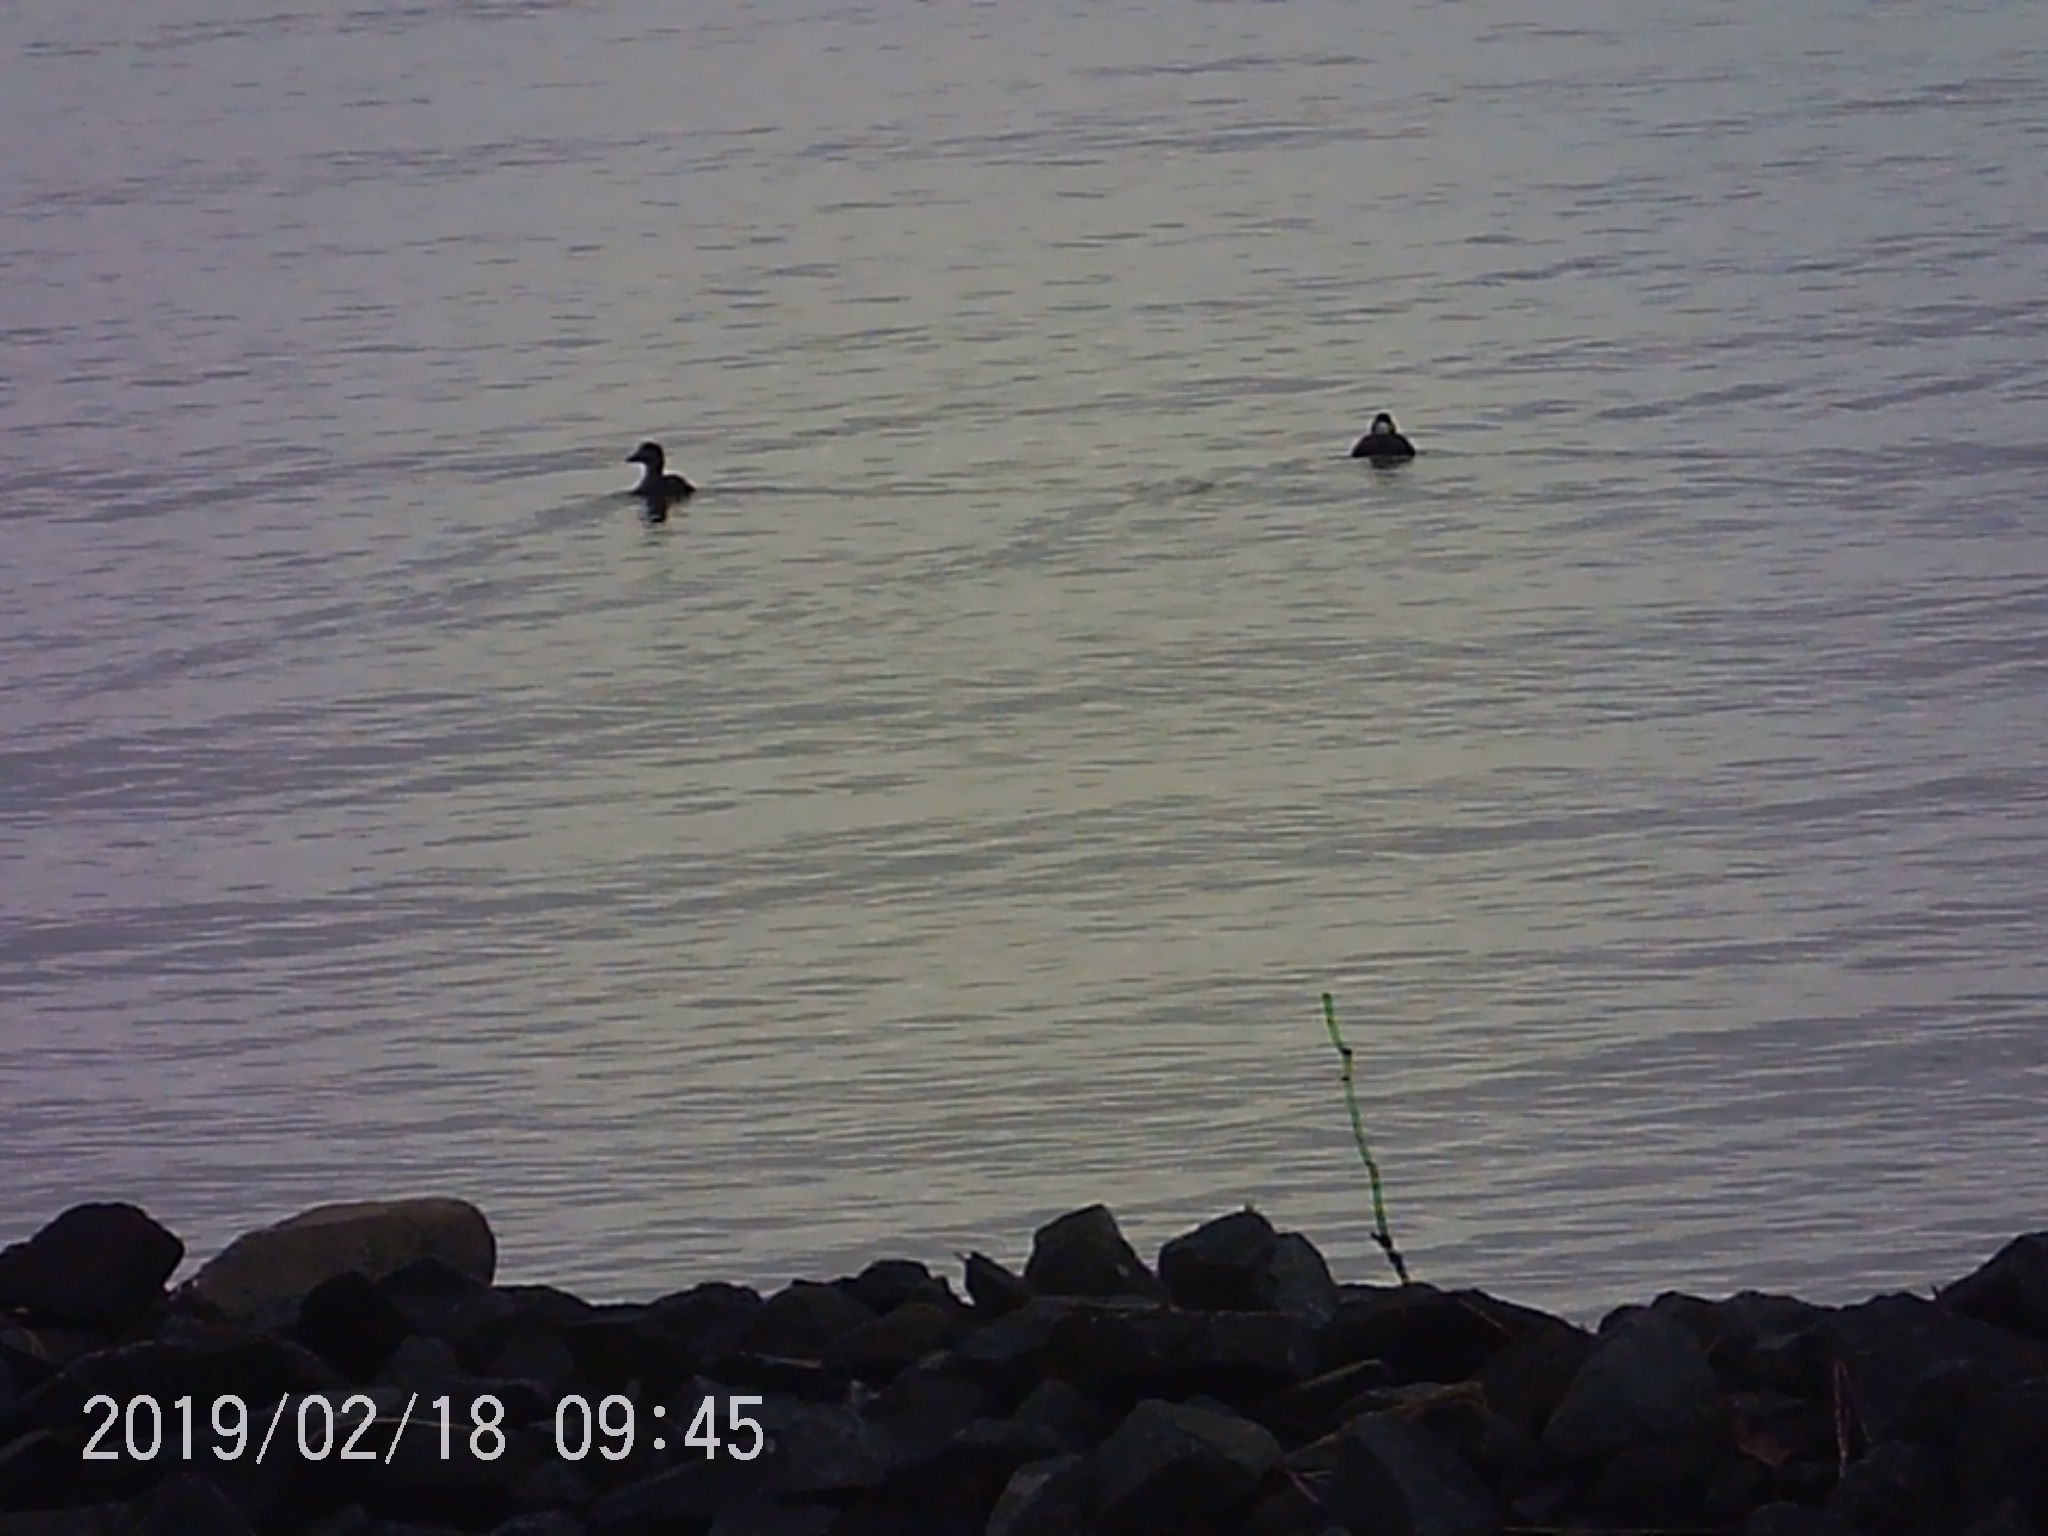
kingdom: Animalia
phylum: Chordata
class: Aves
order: Anseriformes
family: Anatidae
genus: Melanitta
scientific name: Melanitta perspicillata
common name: Surf scoter
